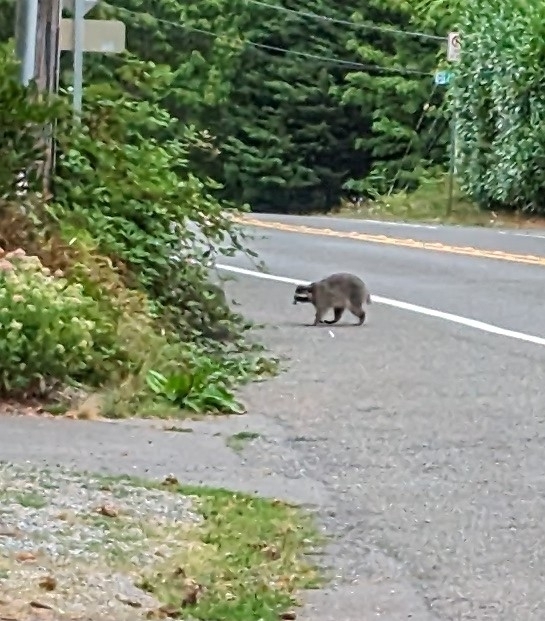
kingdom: Animalia
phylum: Chordata
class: Mammalia
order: Carnivora
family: Procyonidae
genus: Procyon
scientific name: Procyon lotor
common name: Raccoon
